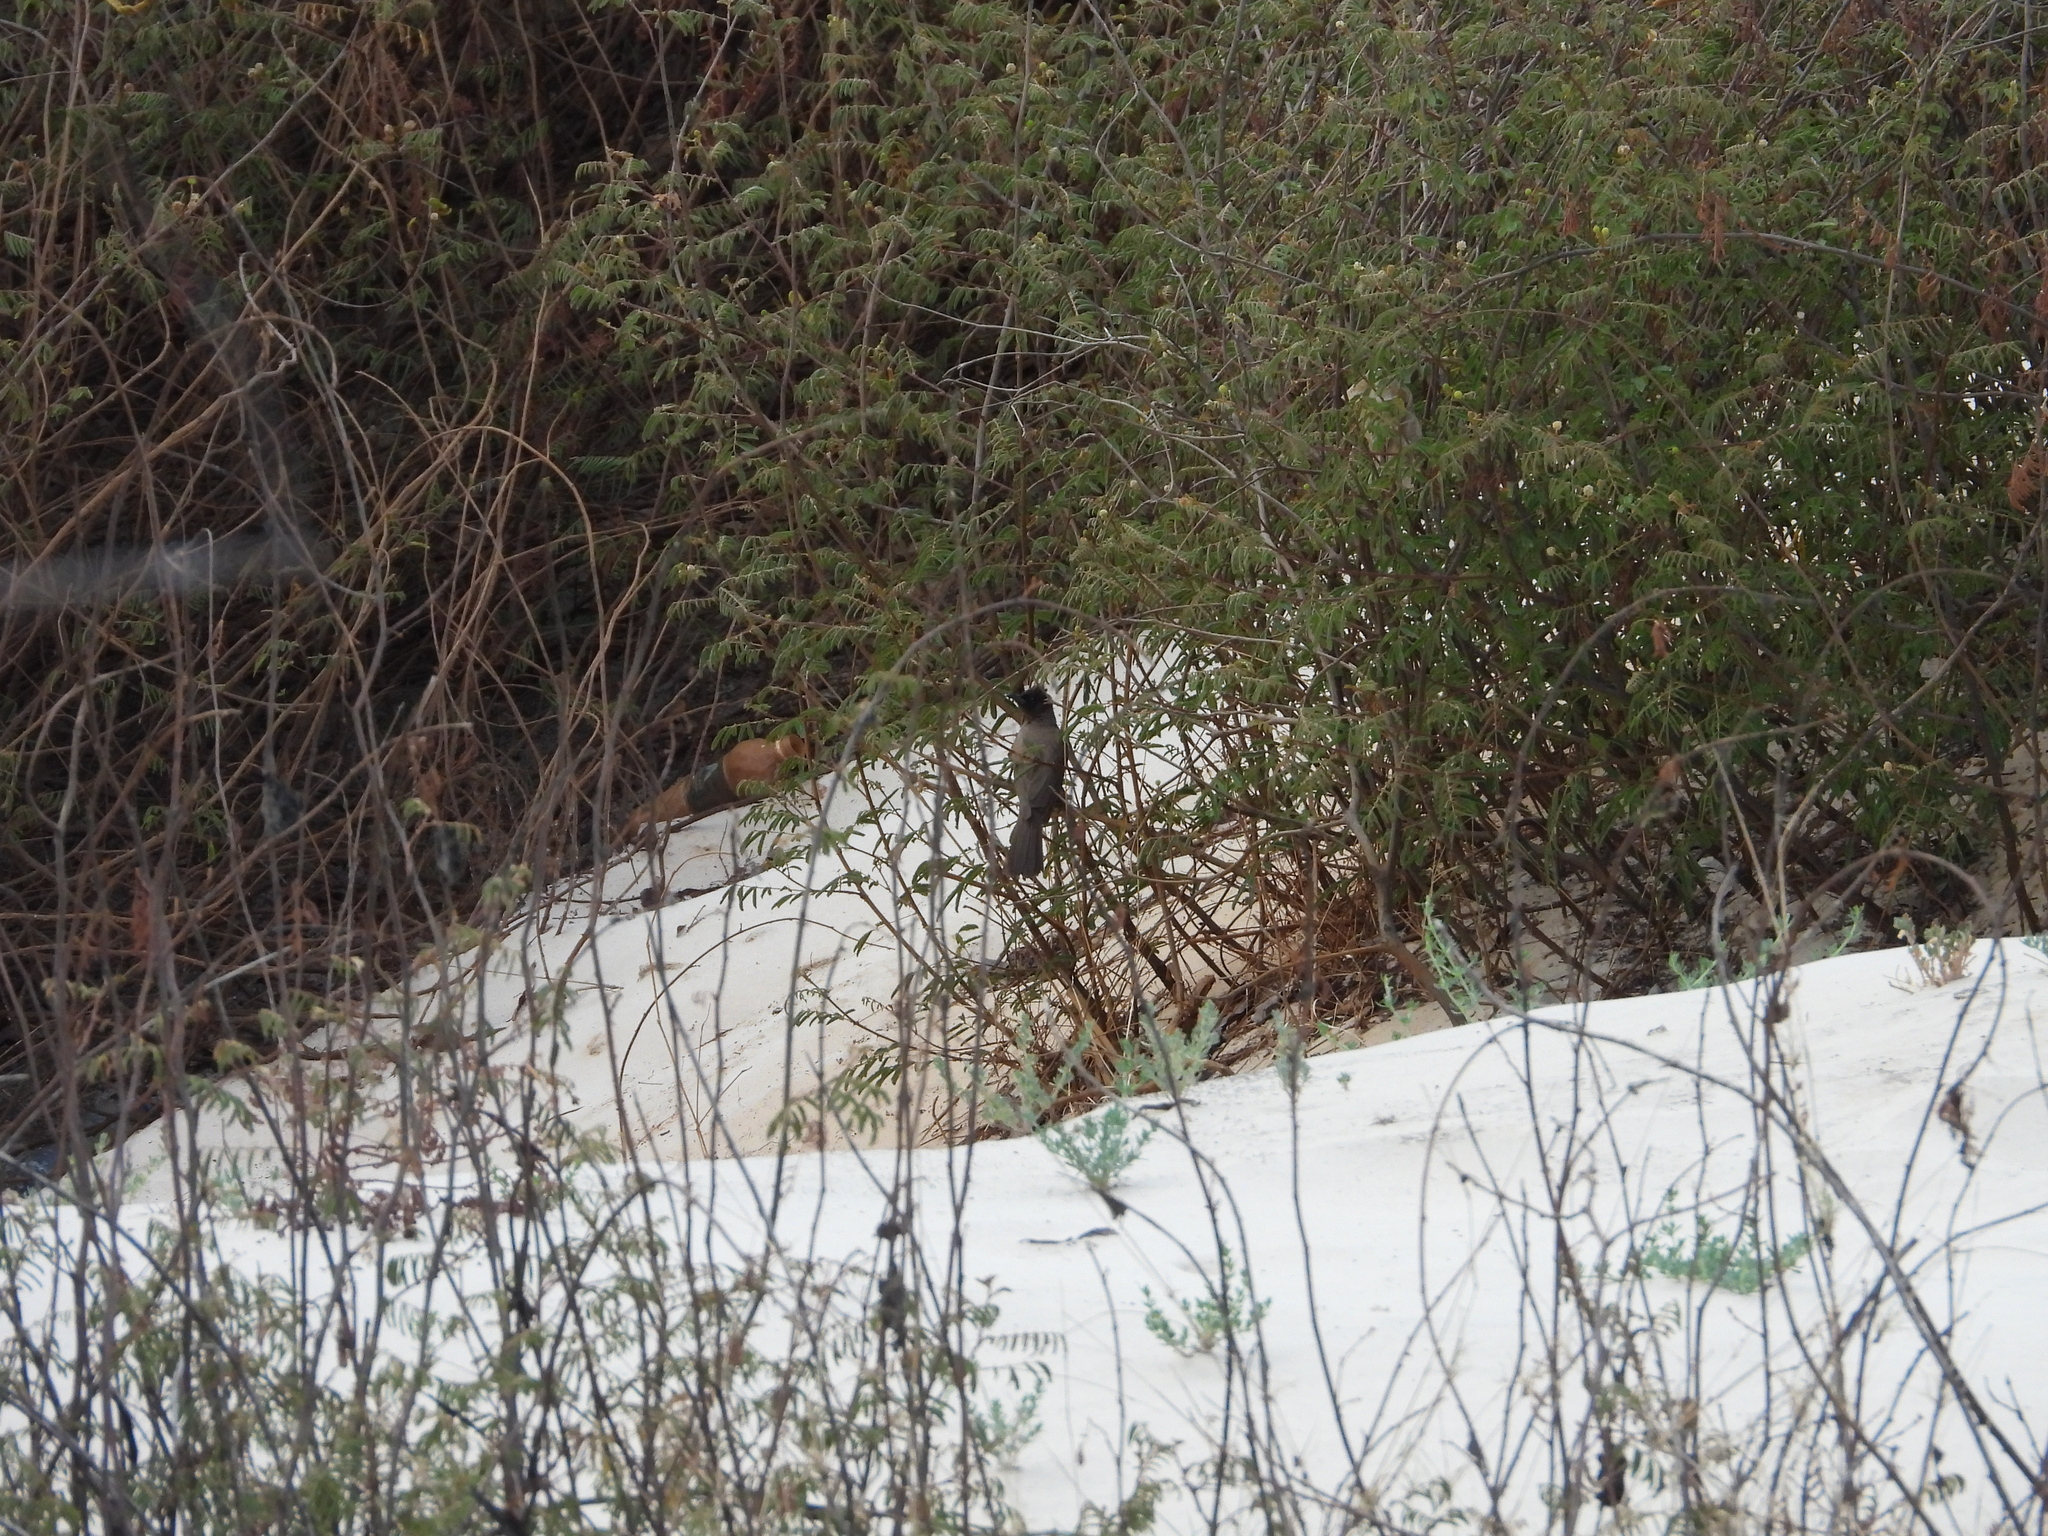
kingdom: Animalia
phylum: Chordata
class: Aves
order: Passeriformes
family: Pycnonotidae
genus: Pycnonotus
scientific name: Pycnonotus barbatus
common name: Common bulbul
